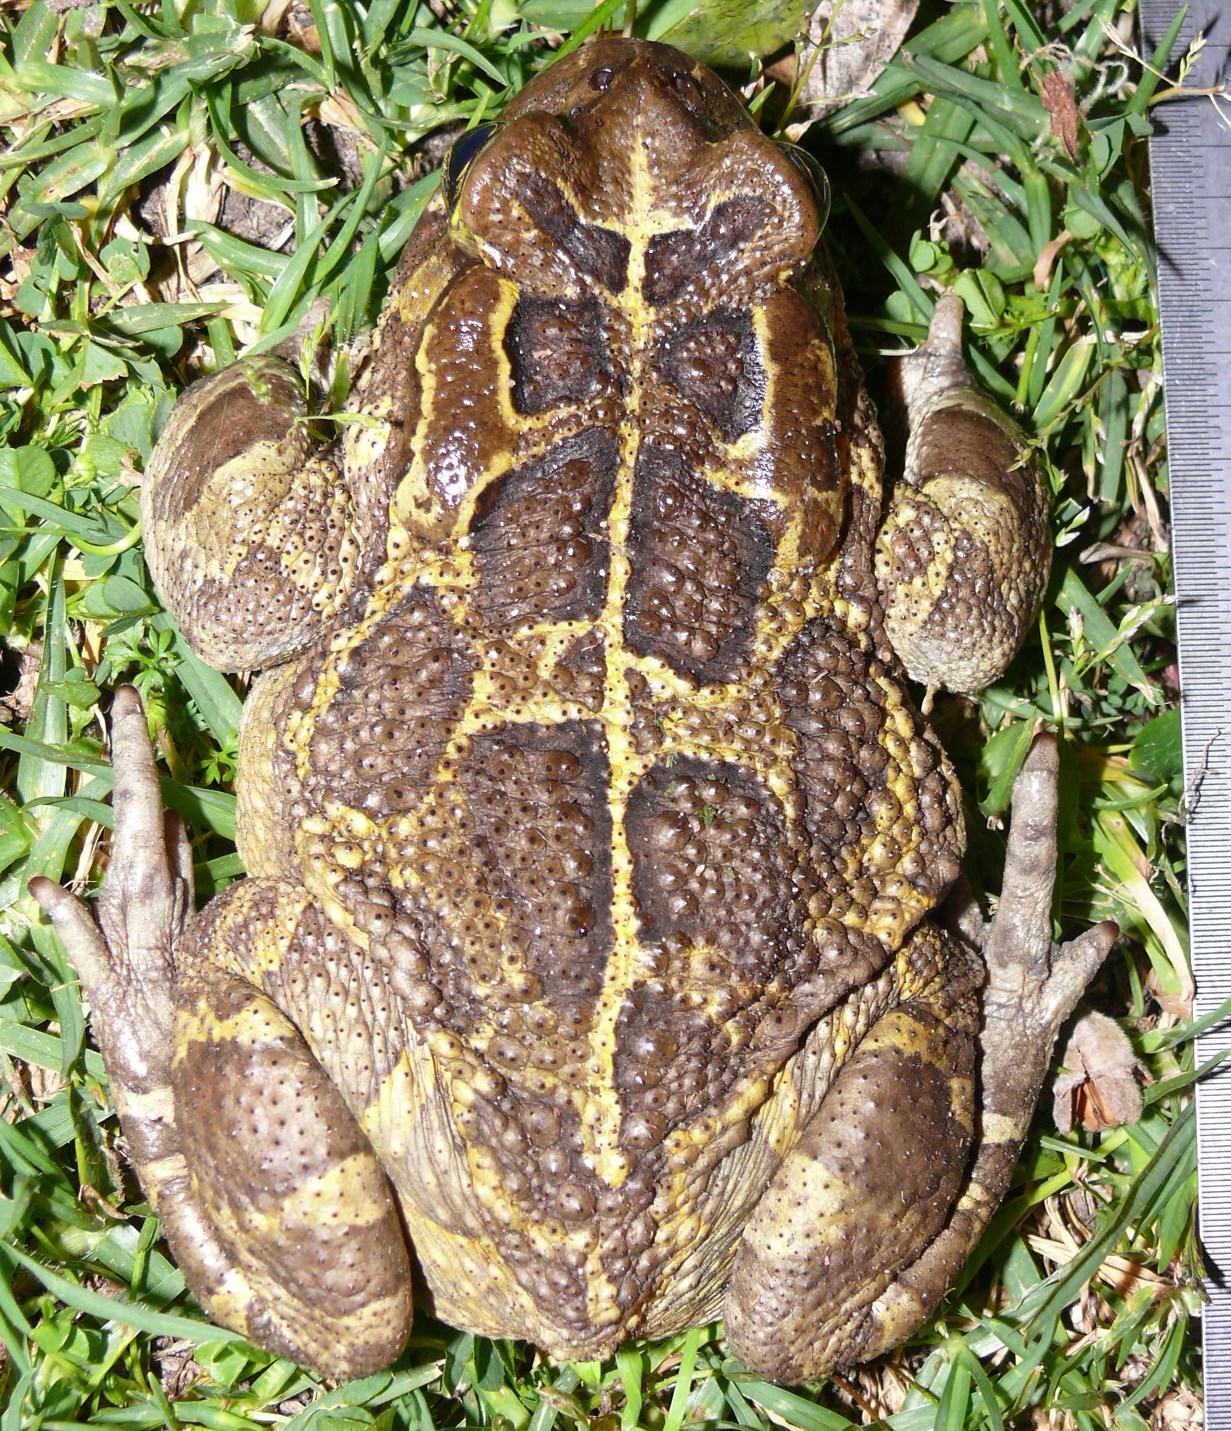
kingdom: Animalia
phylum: Chordata
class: Amphibia
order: Anura
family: Bufonidae
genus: Sclerophrys
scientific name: Sclerophrys pantherina
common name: Panther toad
